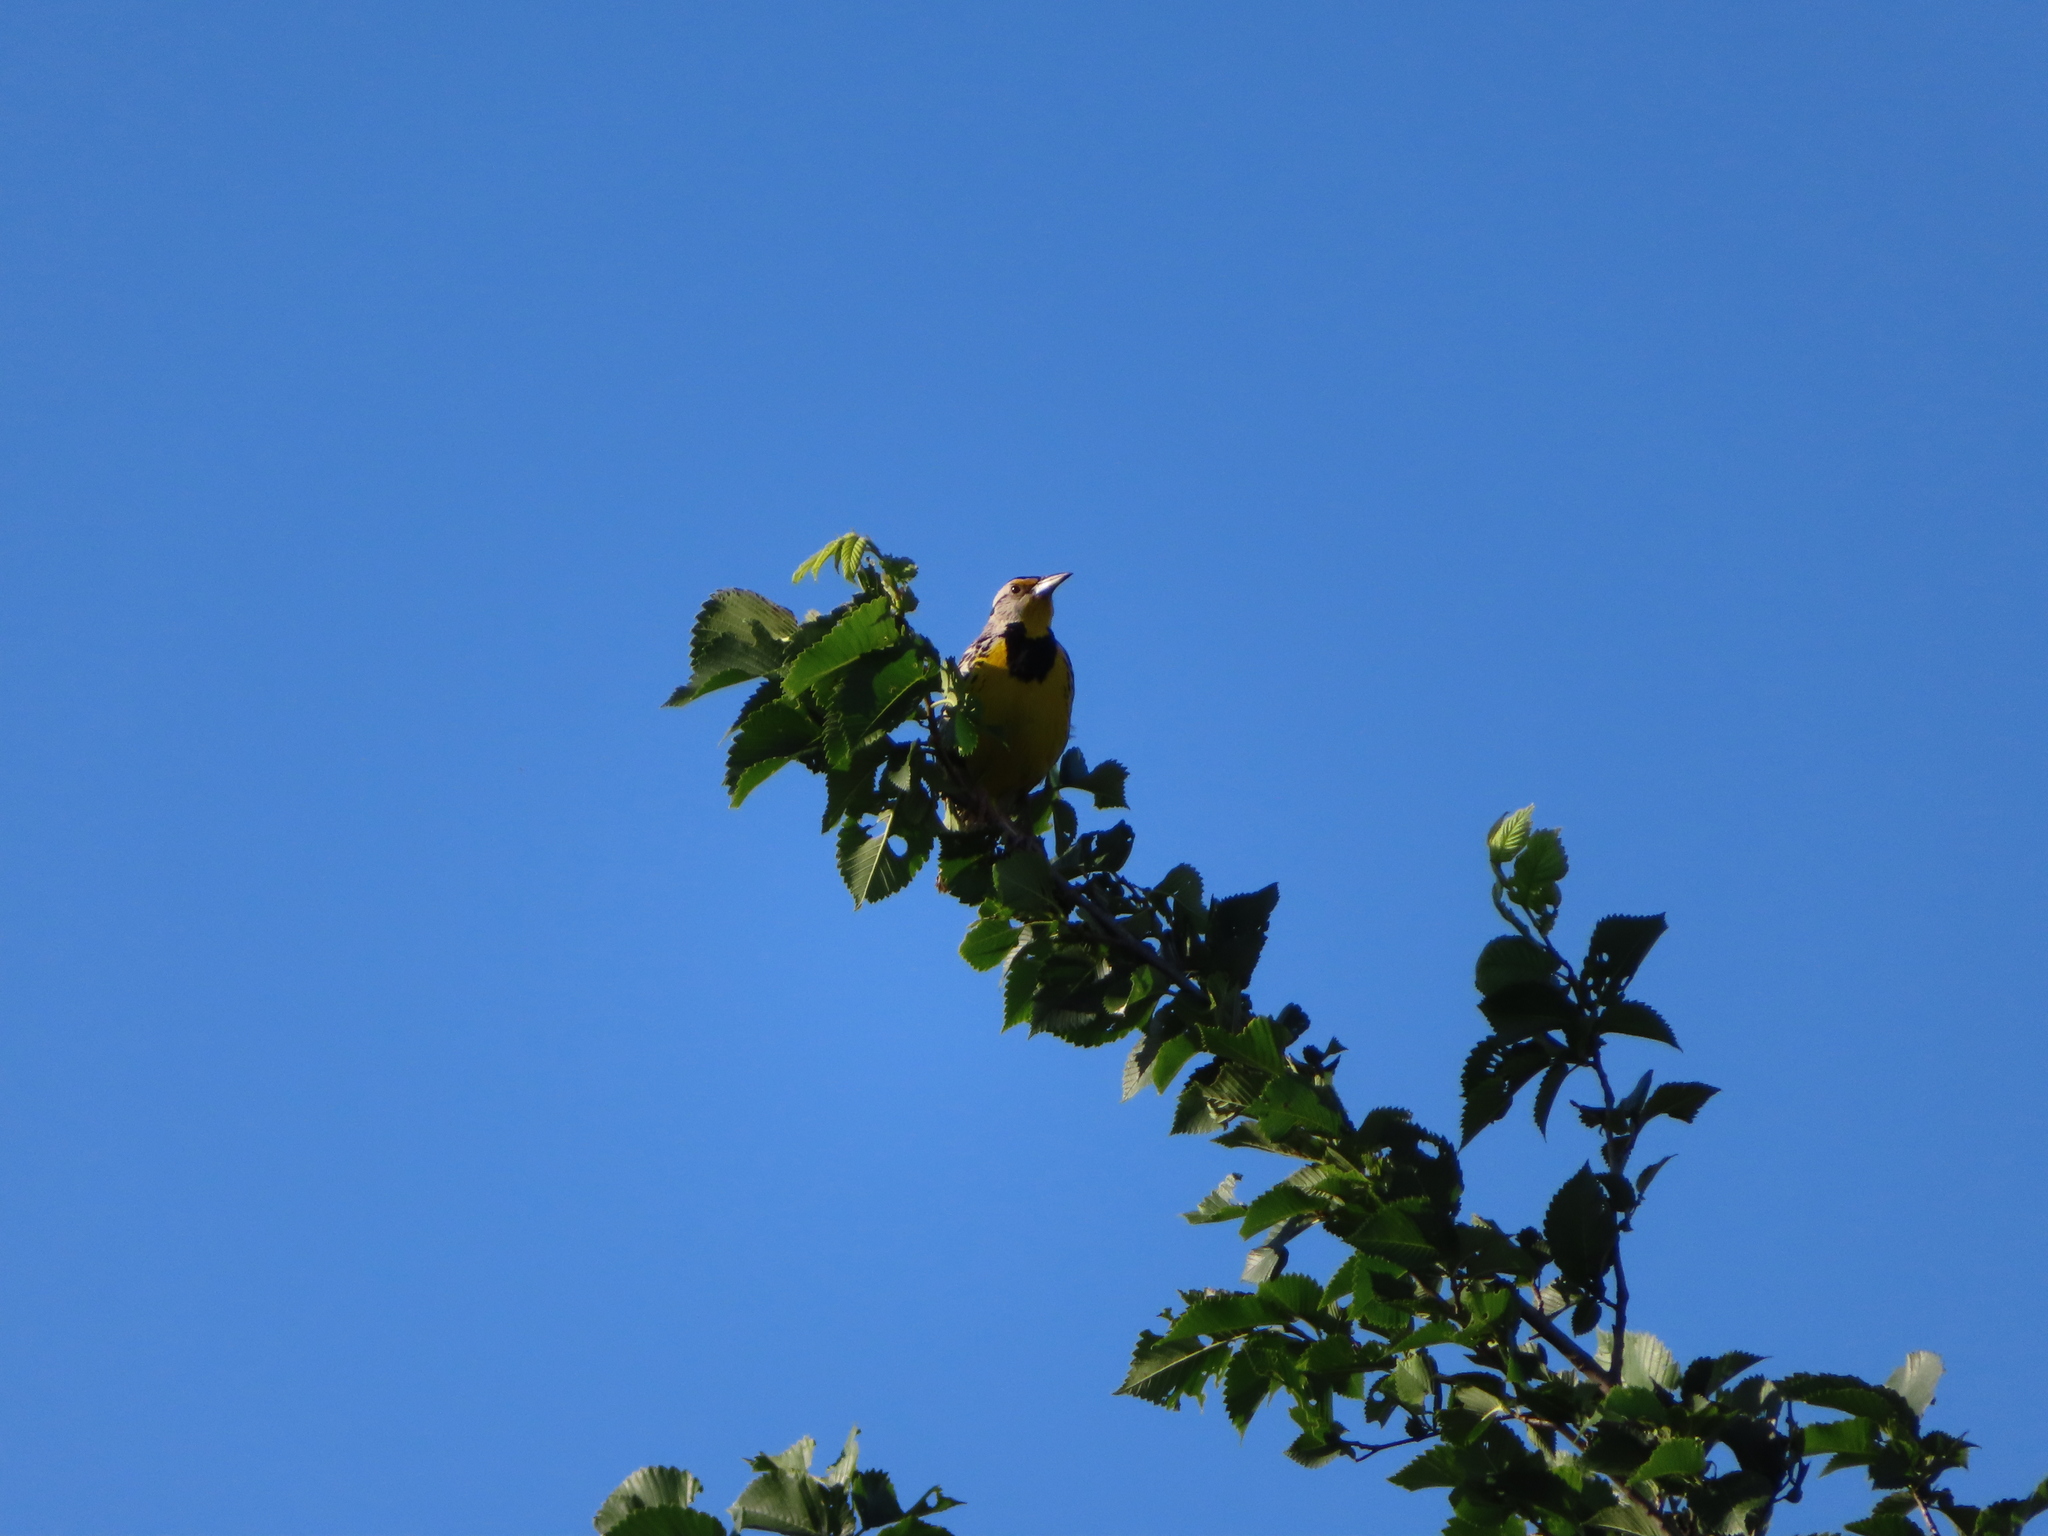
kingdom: Animalia
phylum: Chordata
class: Aves
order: Passeriformes
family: Icteridae
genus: Sturnella
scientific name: Sturnella magna
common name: Eastern meadowlark
